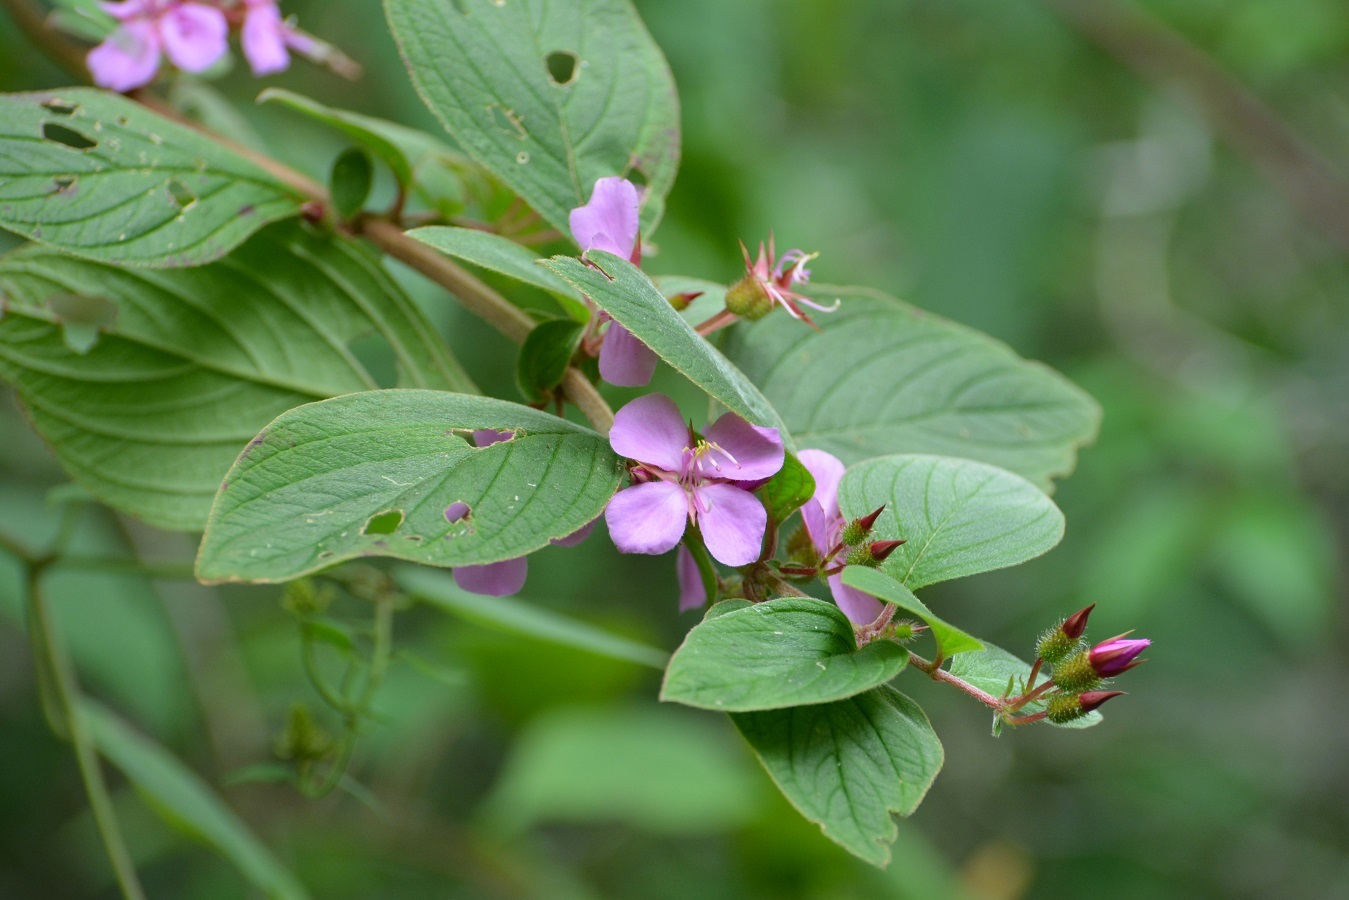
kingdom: Plantae
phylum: Tracheophyta
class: Magnoliopsida
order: Myrtales
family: Melastomataceae
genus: Heterocentron
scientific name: Heterocentron muricatum
